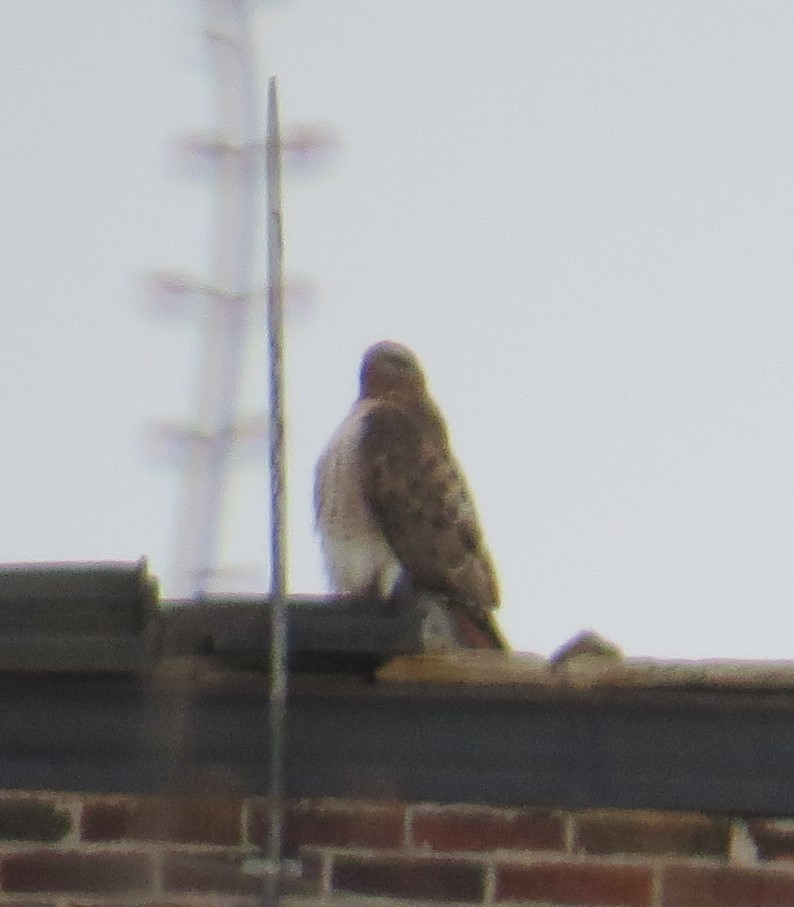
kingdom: Animalia
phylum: Chordata
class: Aves
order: Accipitriformes
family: Accipitridae
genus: Buteo
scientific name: Buteo jamaicensis
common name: Red-tailed hawk
